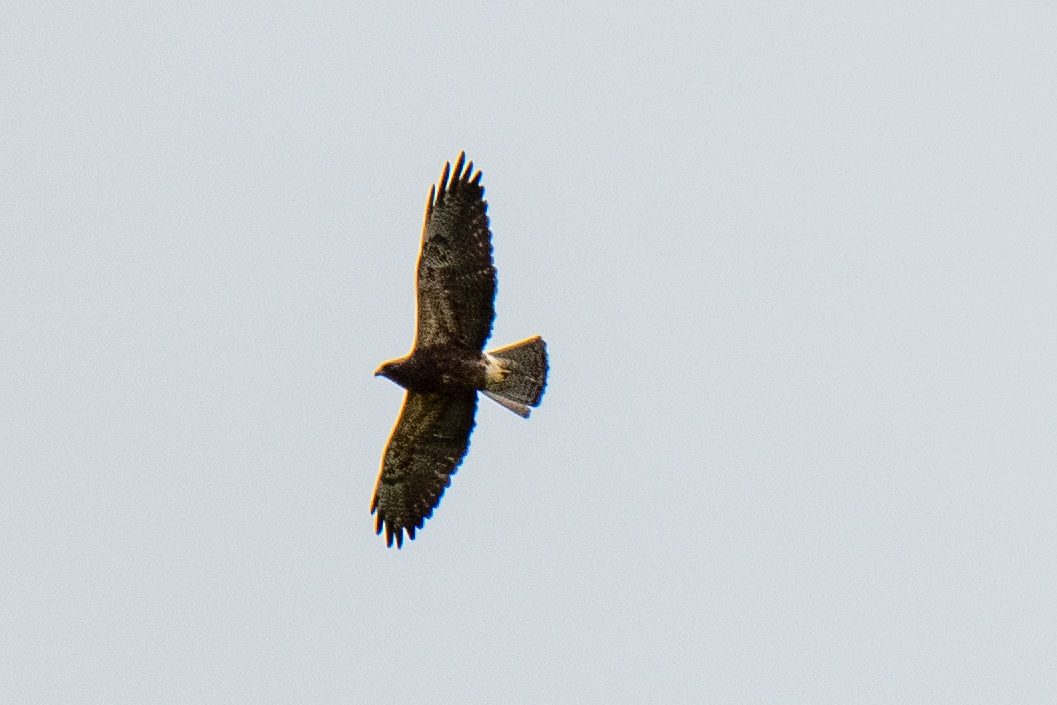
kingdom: Animalia
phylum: Chordata
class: Aves
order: Accipitriformes
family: Accipitridae
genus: Buteo
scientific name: Buteo swainsoni
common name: Swainson's hawk
